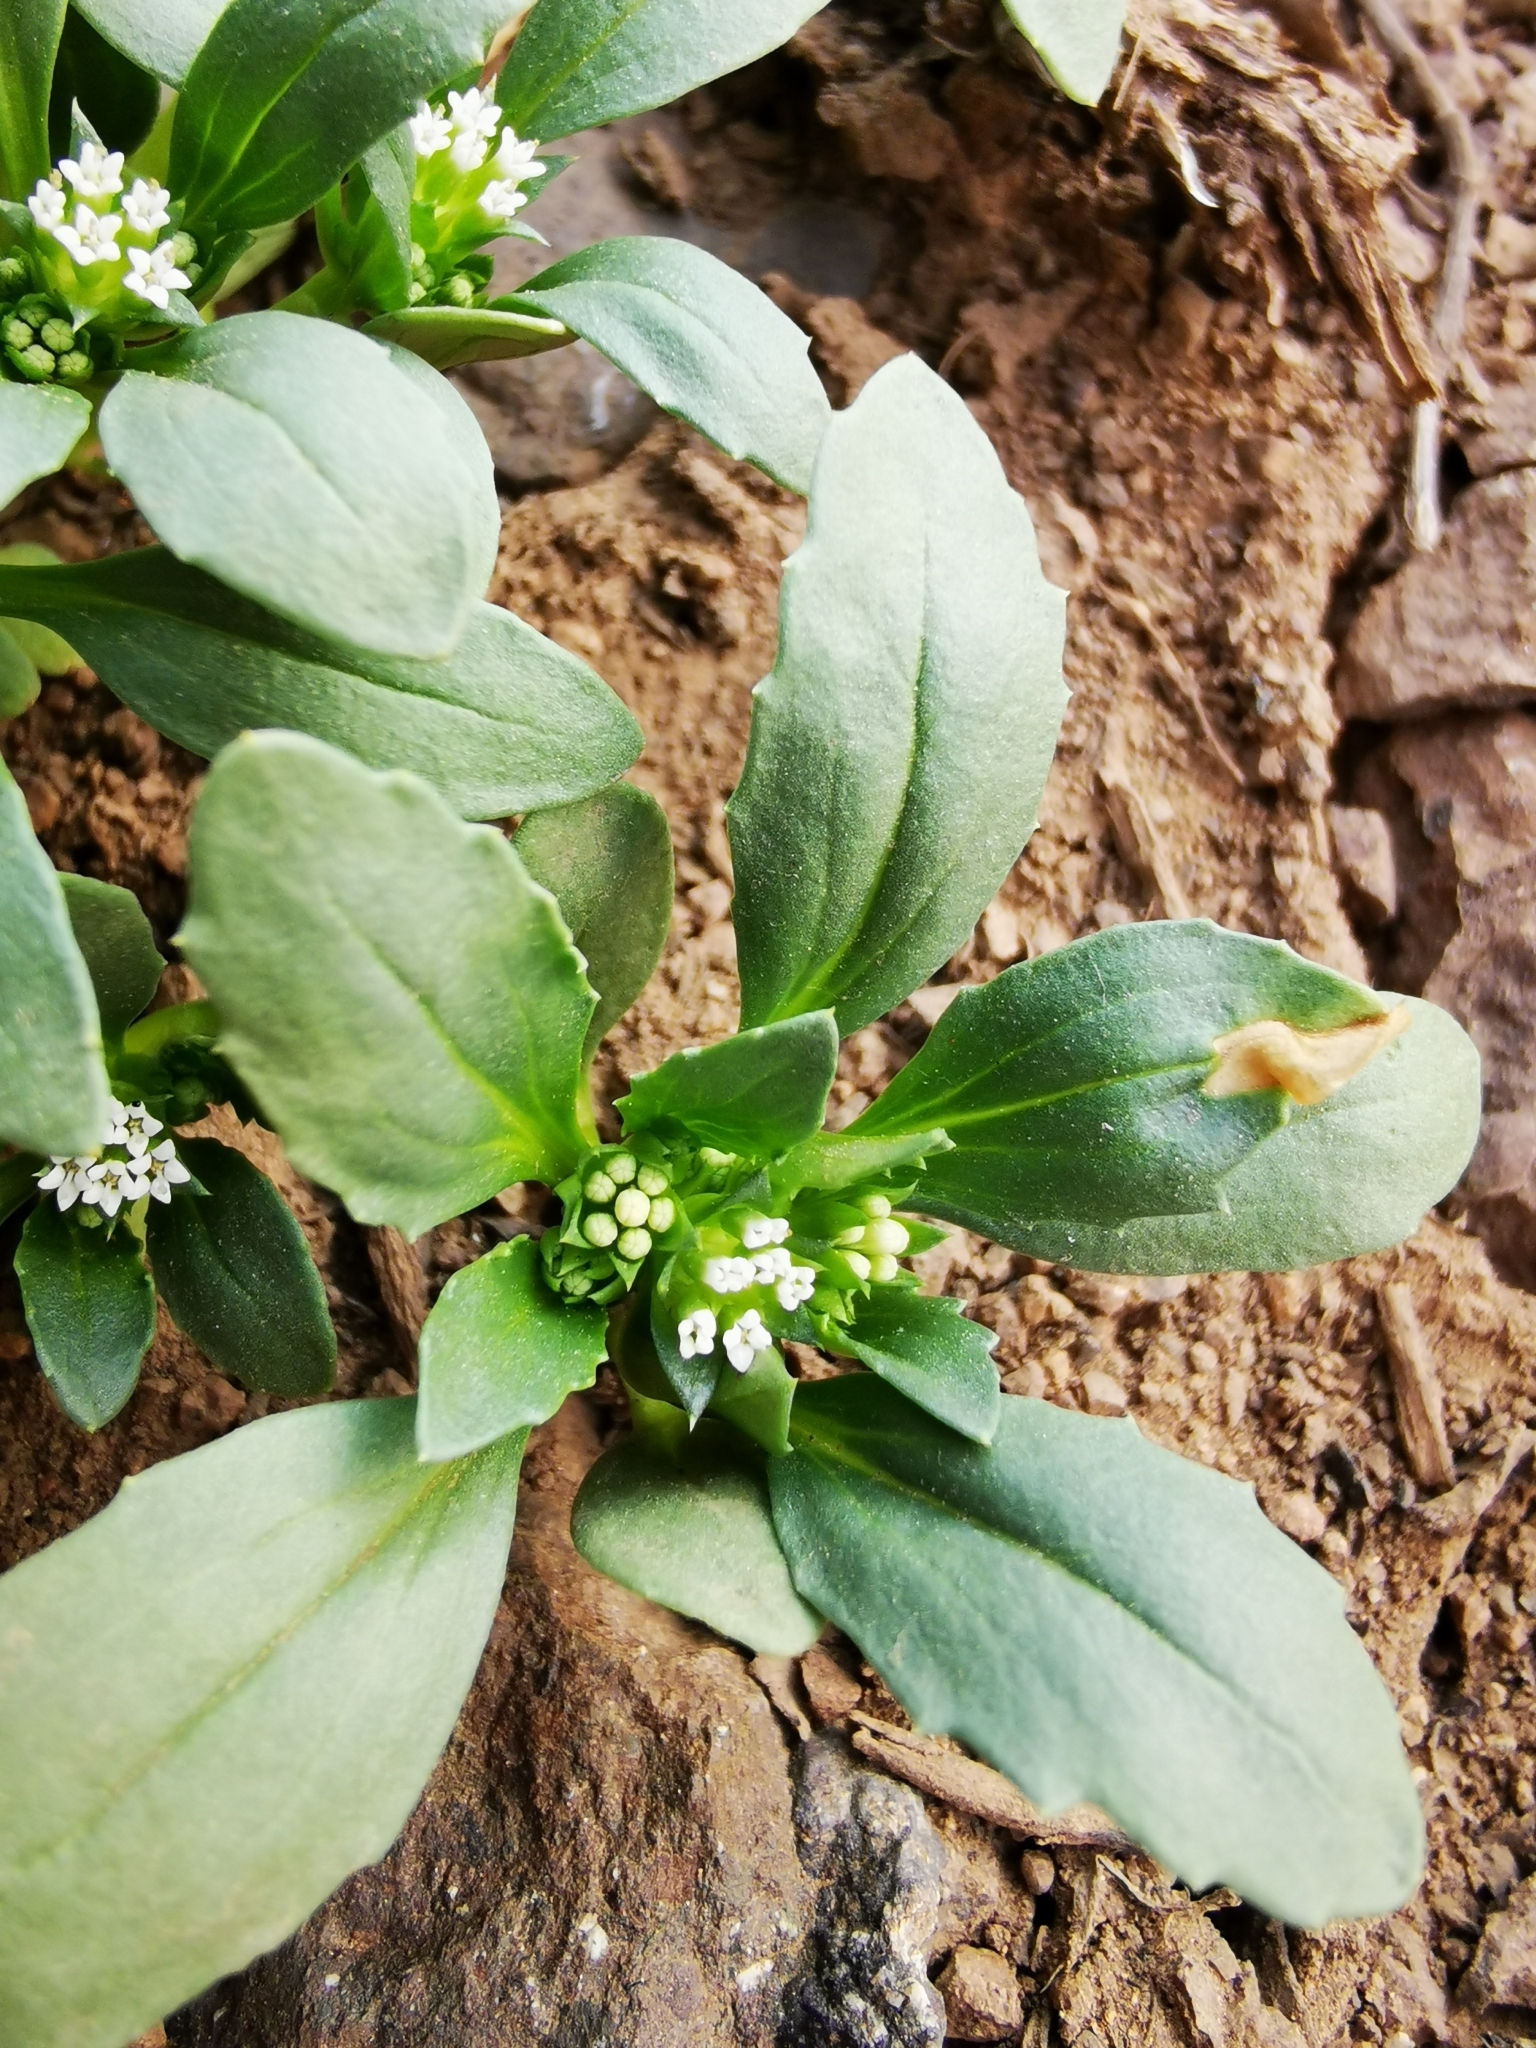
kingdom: Plantae
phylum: Tracheophyta
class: Magnoliopsida
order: Asterales
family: Calyceraceae
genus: Leucocera
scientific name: Leucocera sessiliflora
